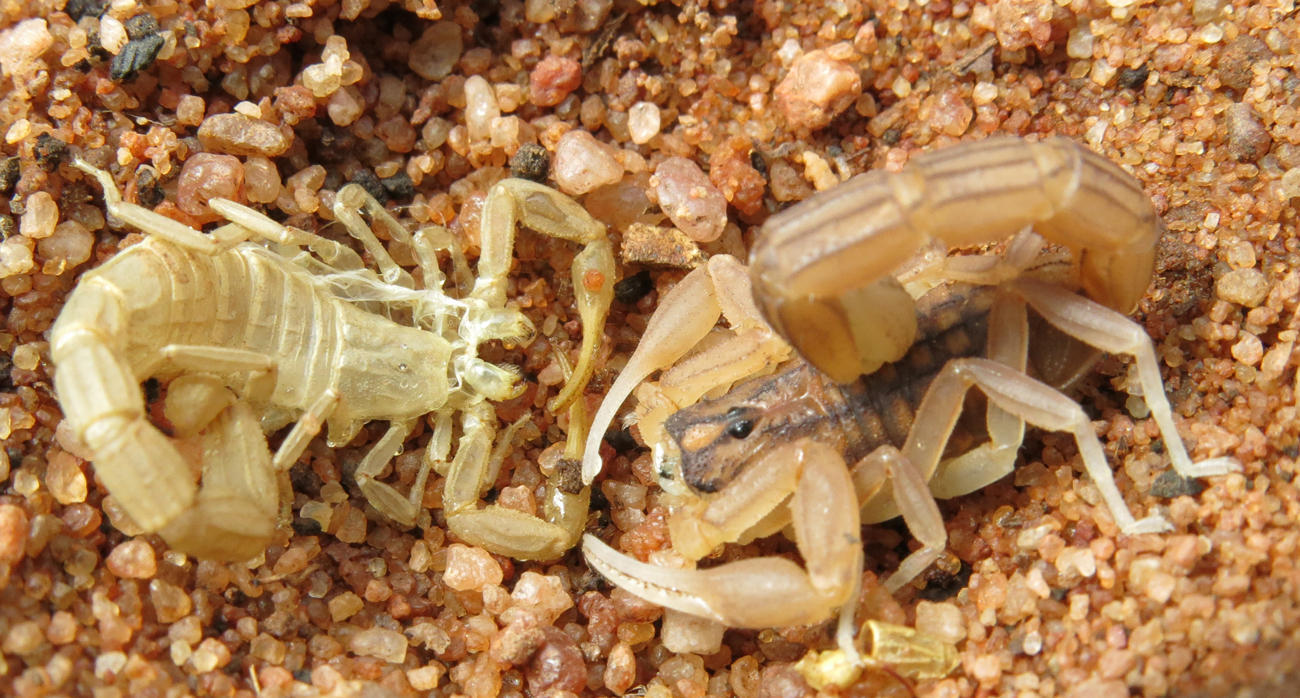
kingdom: Animalia
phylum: Arthropoda
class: Arachnida
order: Scorpiones
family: Buthidae
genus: Hottentotta
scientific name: Hottentotta trilineatus
